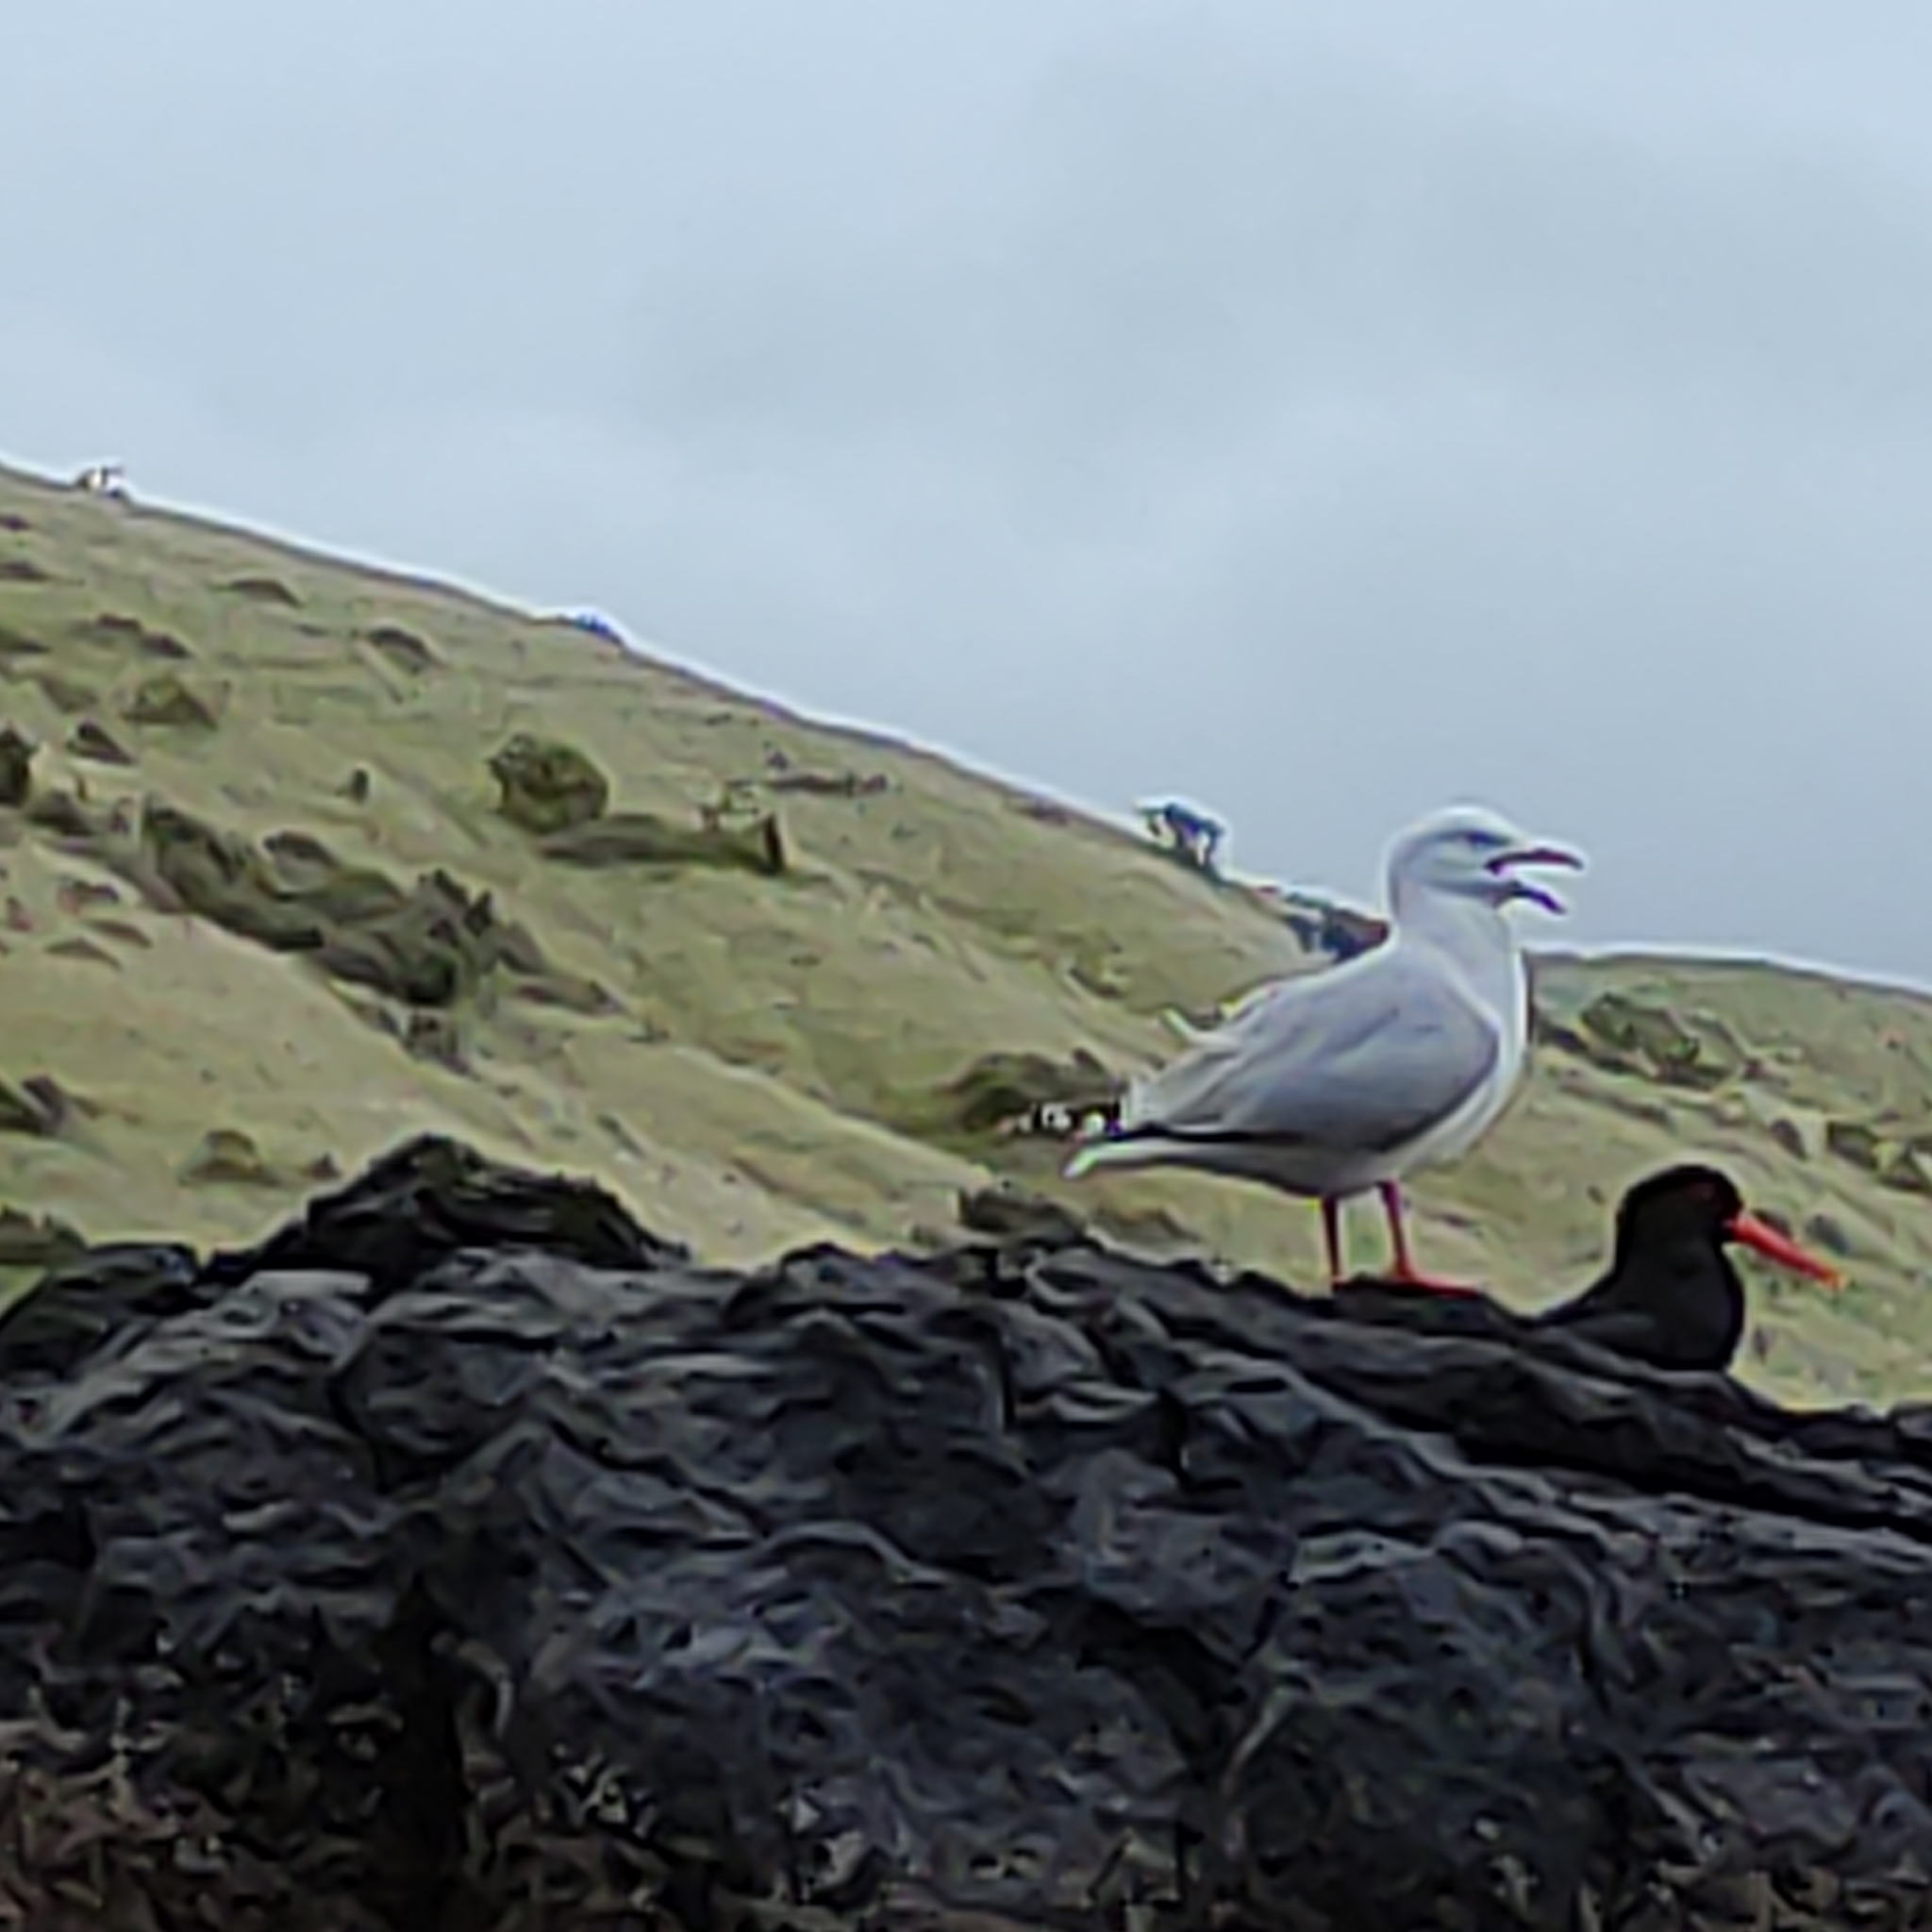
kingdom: Animalia
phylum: Chordata
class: Aves
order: Charadriiformes
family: Laridae
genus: Chroicocephalus
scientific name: Chroicocephalus novaehollandiae
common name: Silver gull
